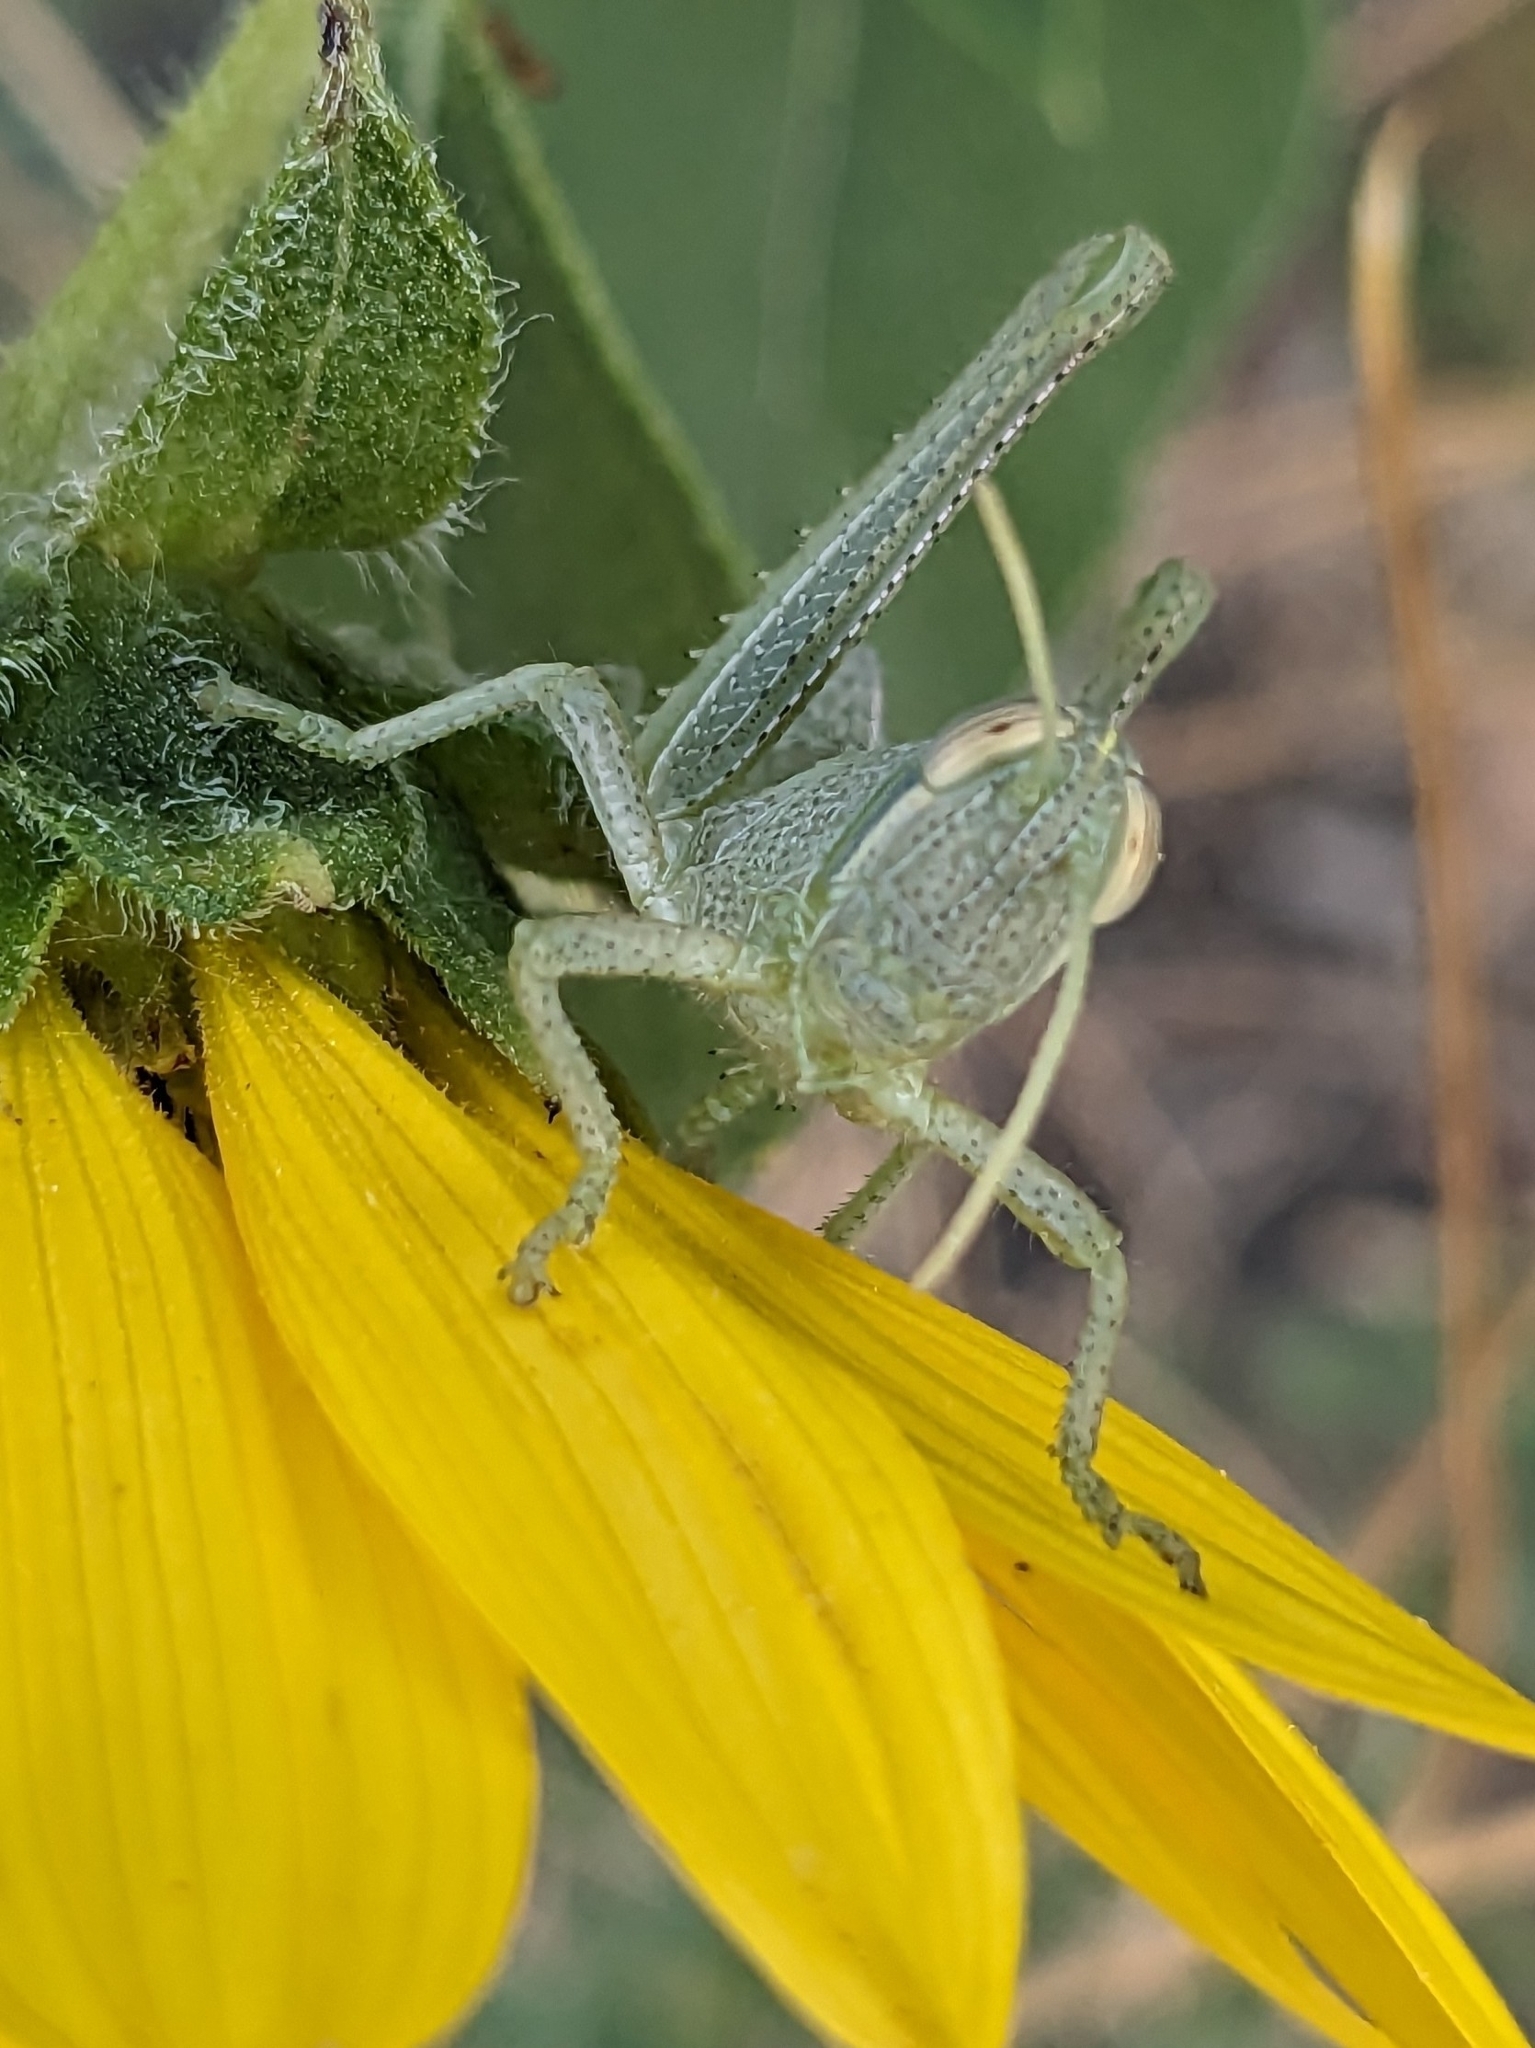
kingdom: Animalia
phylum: Arthropoda
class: Insecta
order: Orthoptera
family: Acrididae
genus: Schistocerca
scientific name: Schistocerca shoshone
